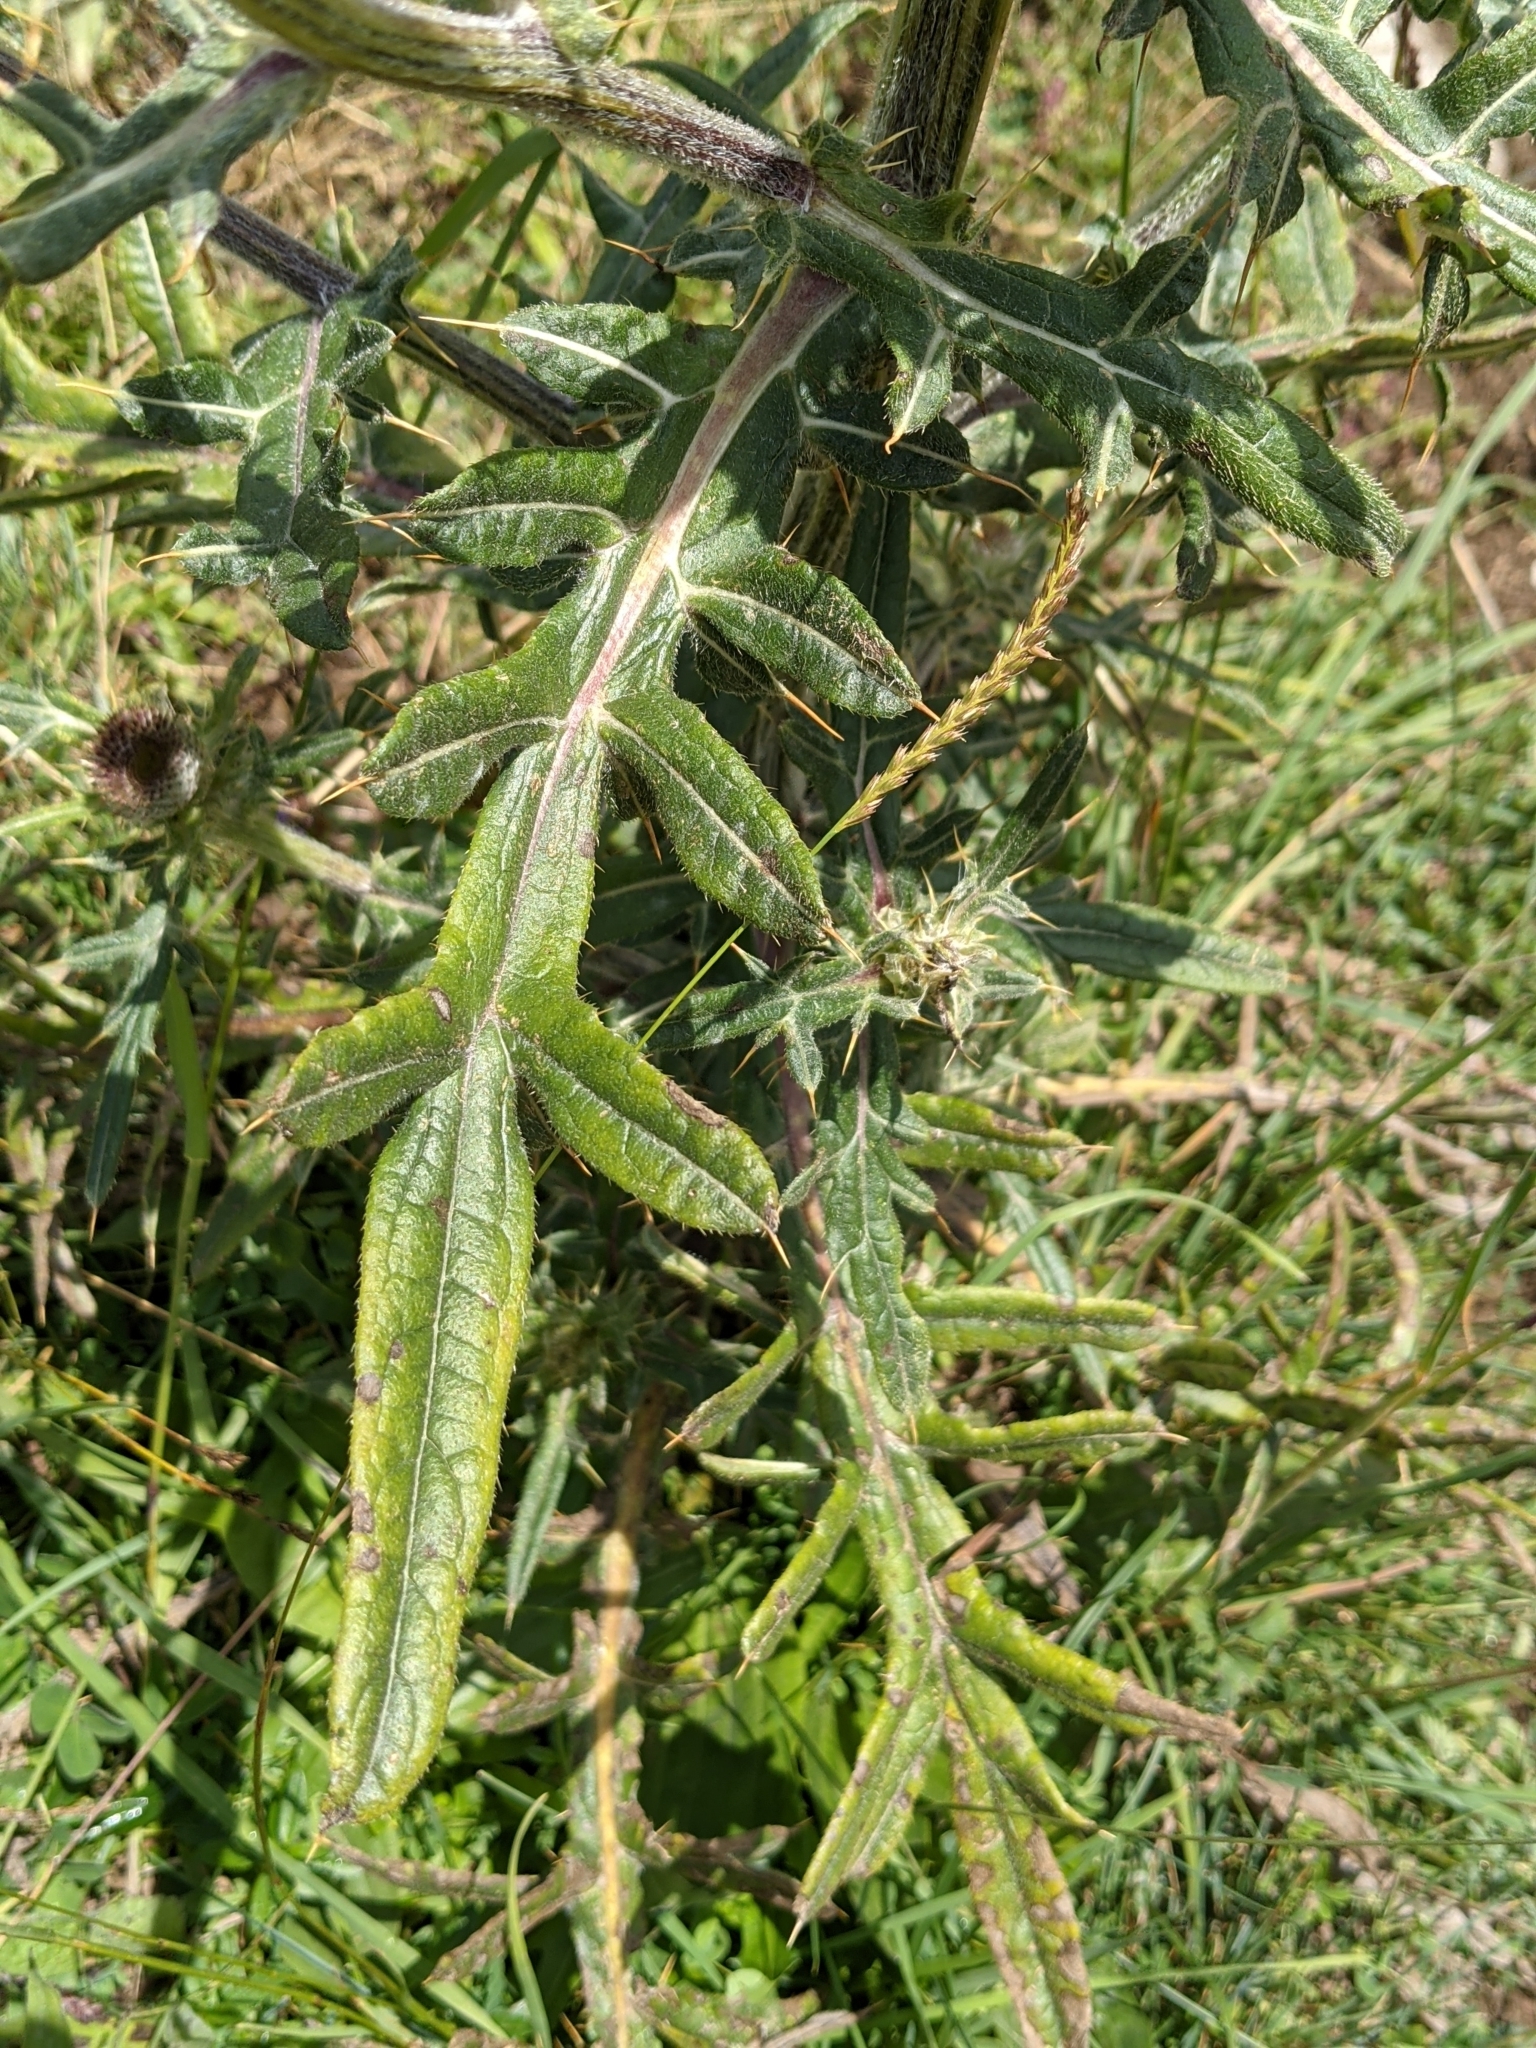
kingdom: Plantae
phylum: Tracheophyta
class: Magnoliopsida
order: Asterales
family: Asteraceae
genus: Lophiolepis
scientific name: Lophiolepis eriophora
